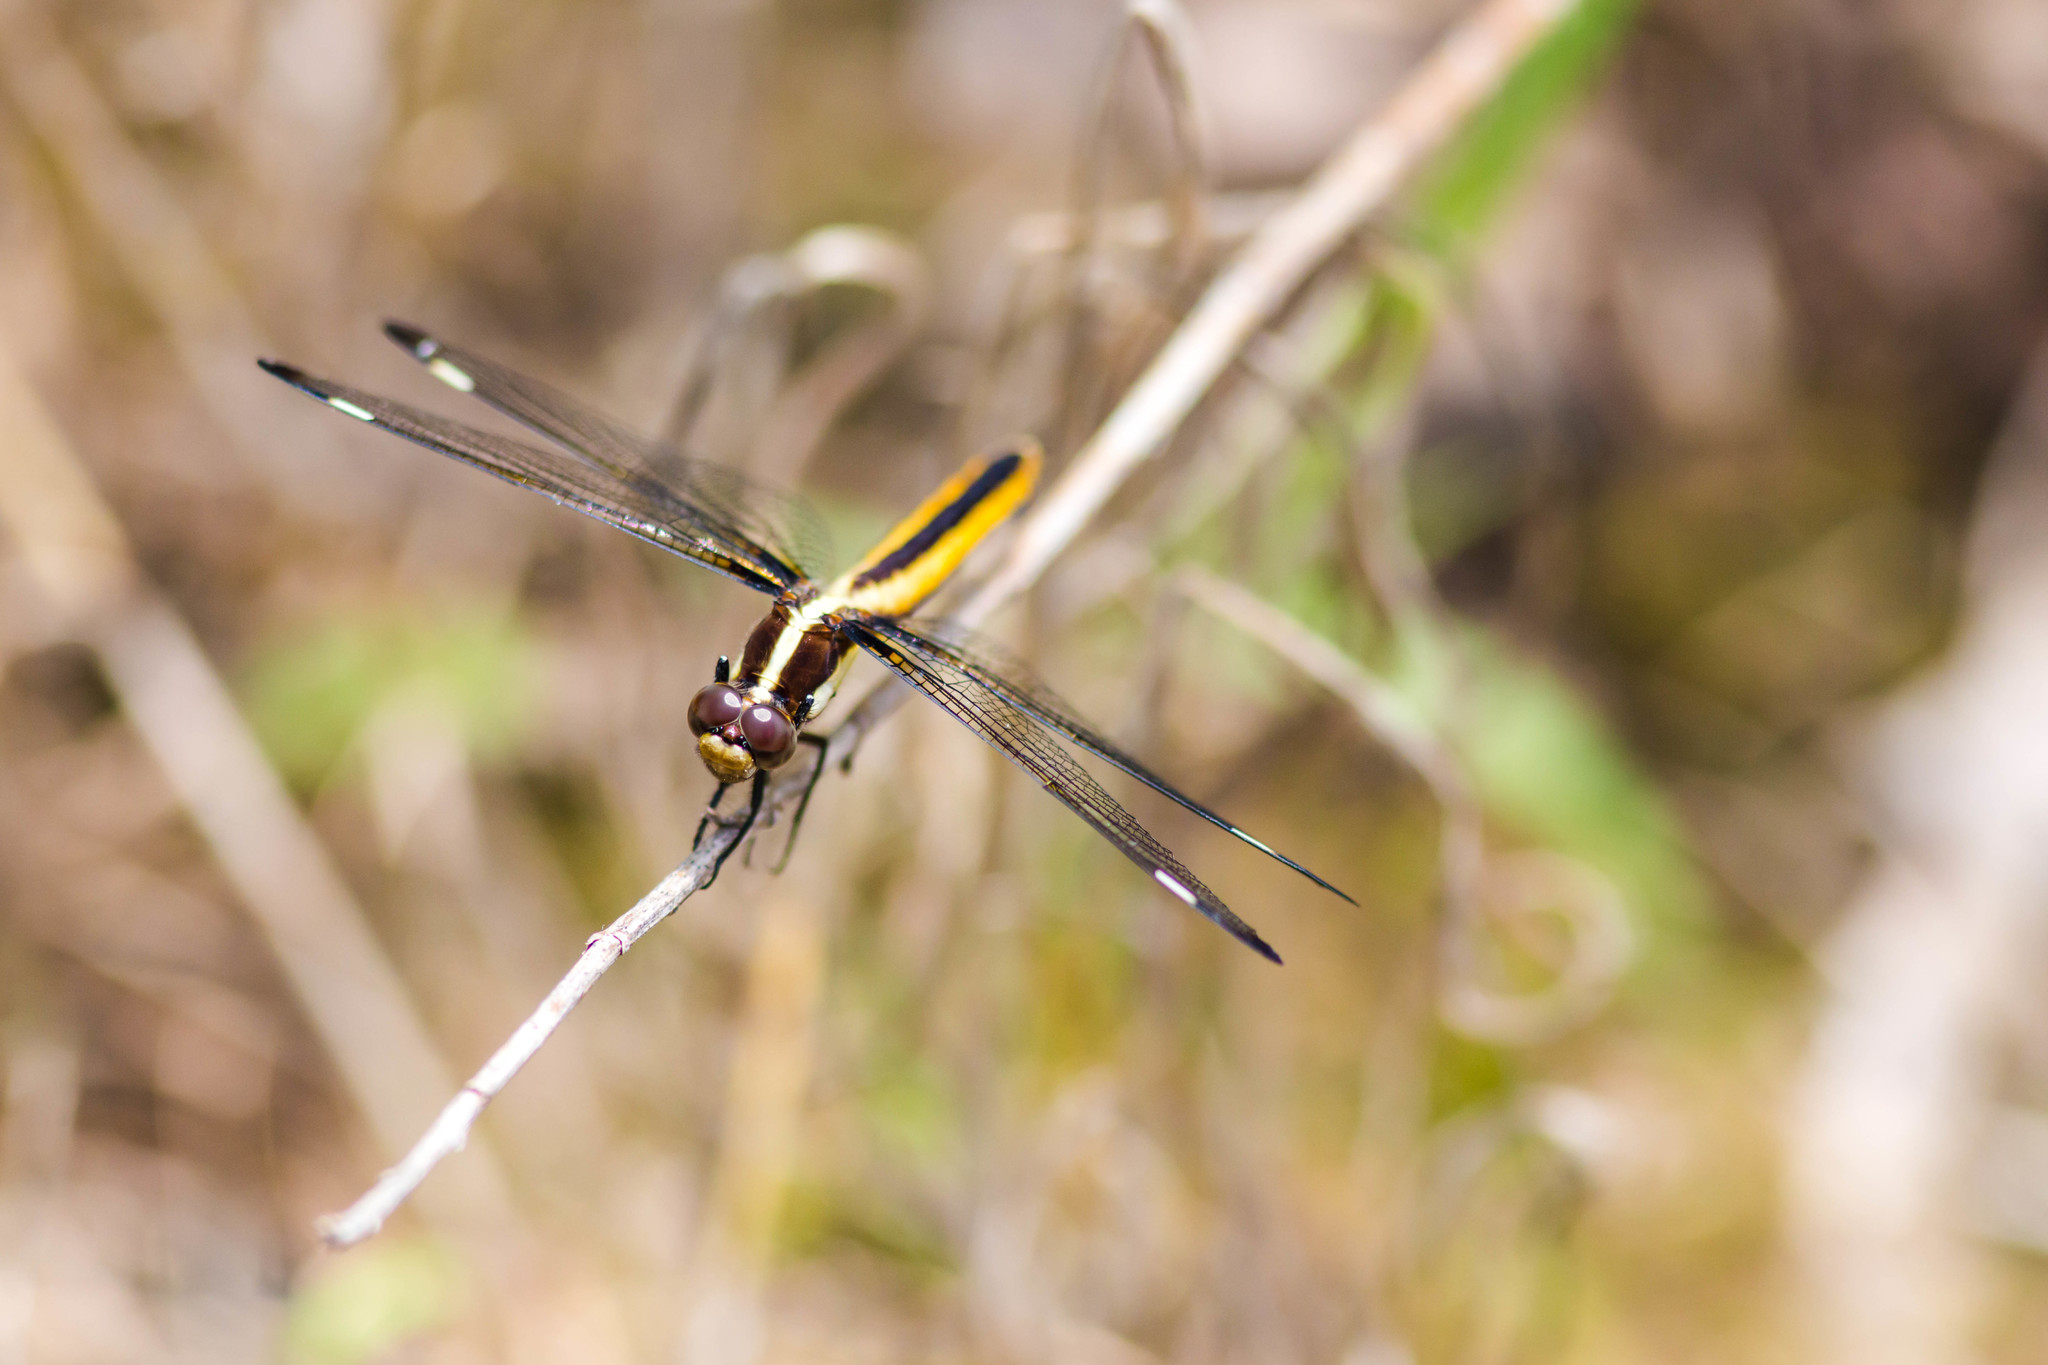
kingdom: Animalia
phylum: Arthropoda
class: Insecta
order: Odonata
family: Libellulidae
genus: Libellula
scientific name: Libellula cyanea
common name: Spangled skimmer
